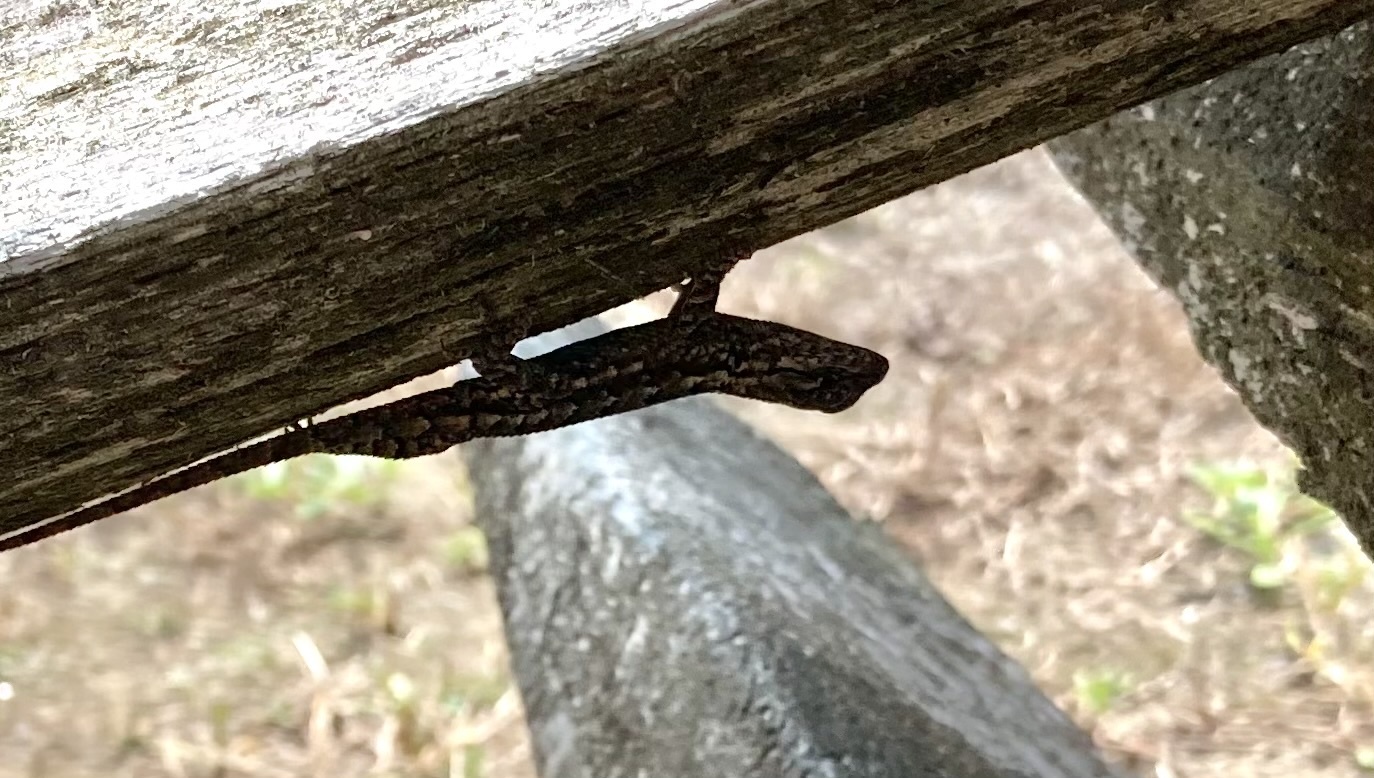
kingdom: Animalia
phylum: Chordata
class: Squamata
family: Phrynosomatidae
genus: Sceloporus
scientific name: Sceloporus undulatus
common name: Eastern fence lizard
